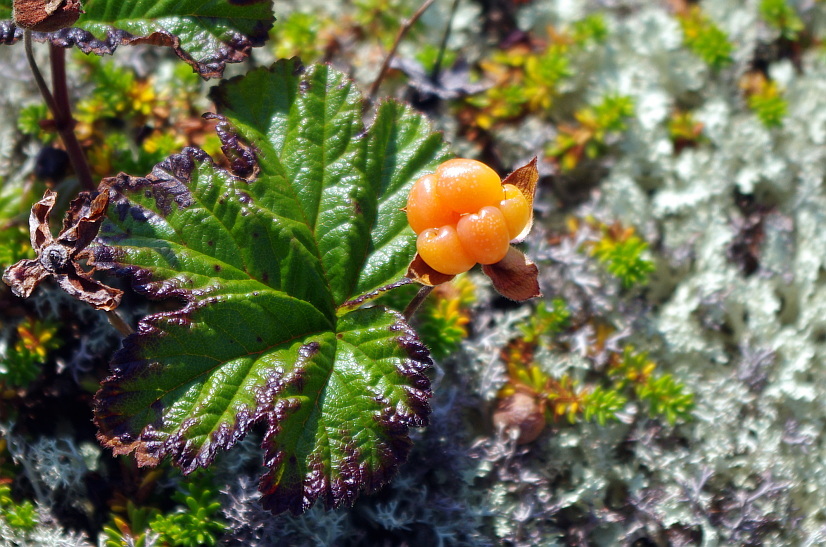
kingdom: Plantae
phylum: Tracheophyta
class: Magnoliopsida
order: Rosales
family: Rosaceae
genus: Rubus
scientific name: Rubus chamaemorus
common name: Cloudberry
